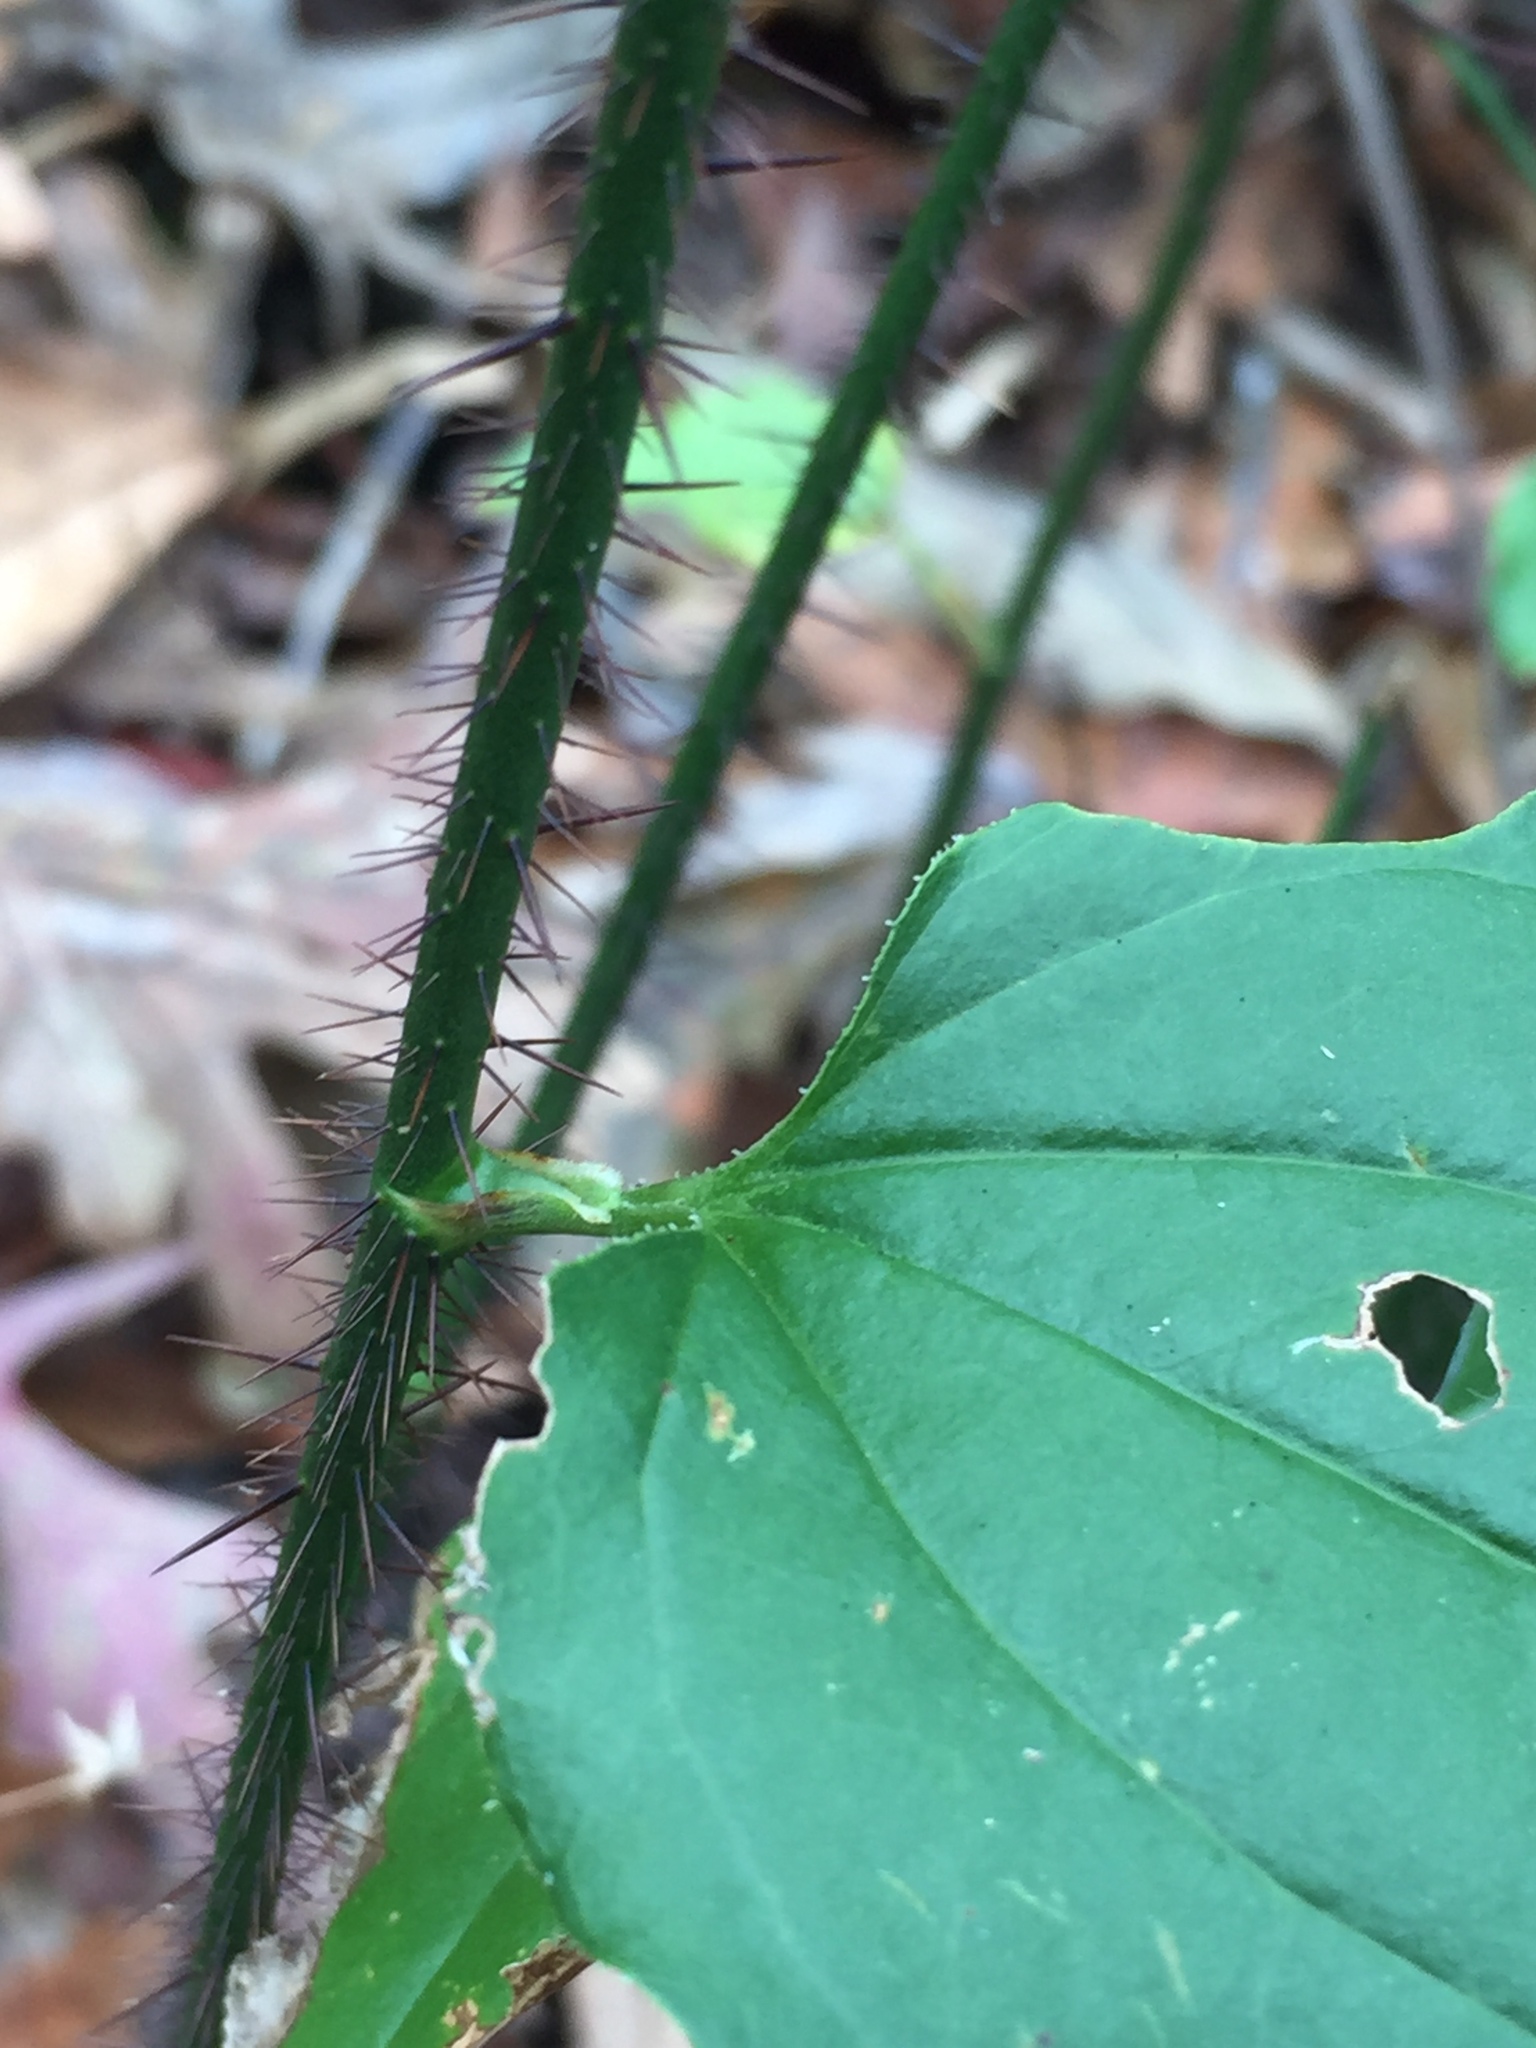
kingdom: Plantae
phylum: Tracheophyta
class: Liliopsida
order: Liliales
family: Smilacaceae
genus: Smilax
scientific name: Smilax tamnoides
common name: Hellfetter
